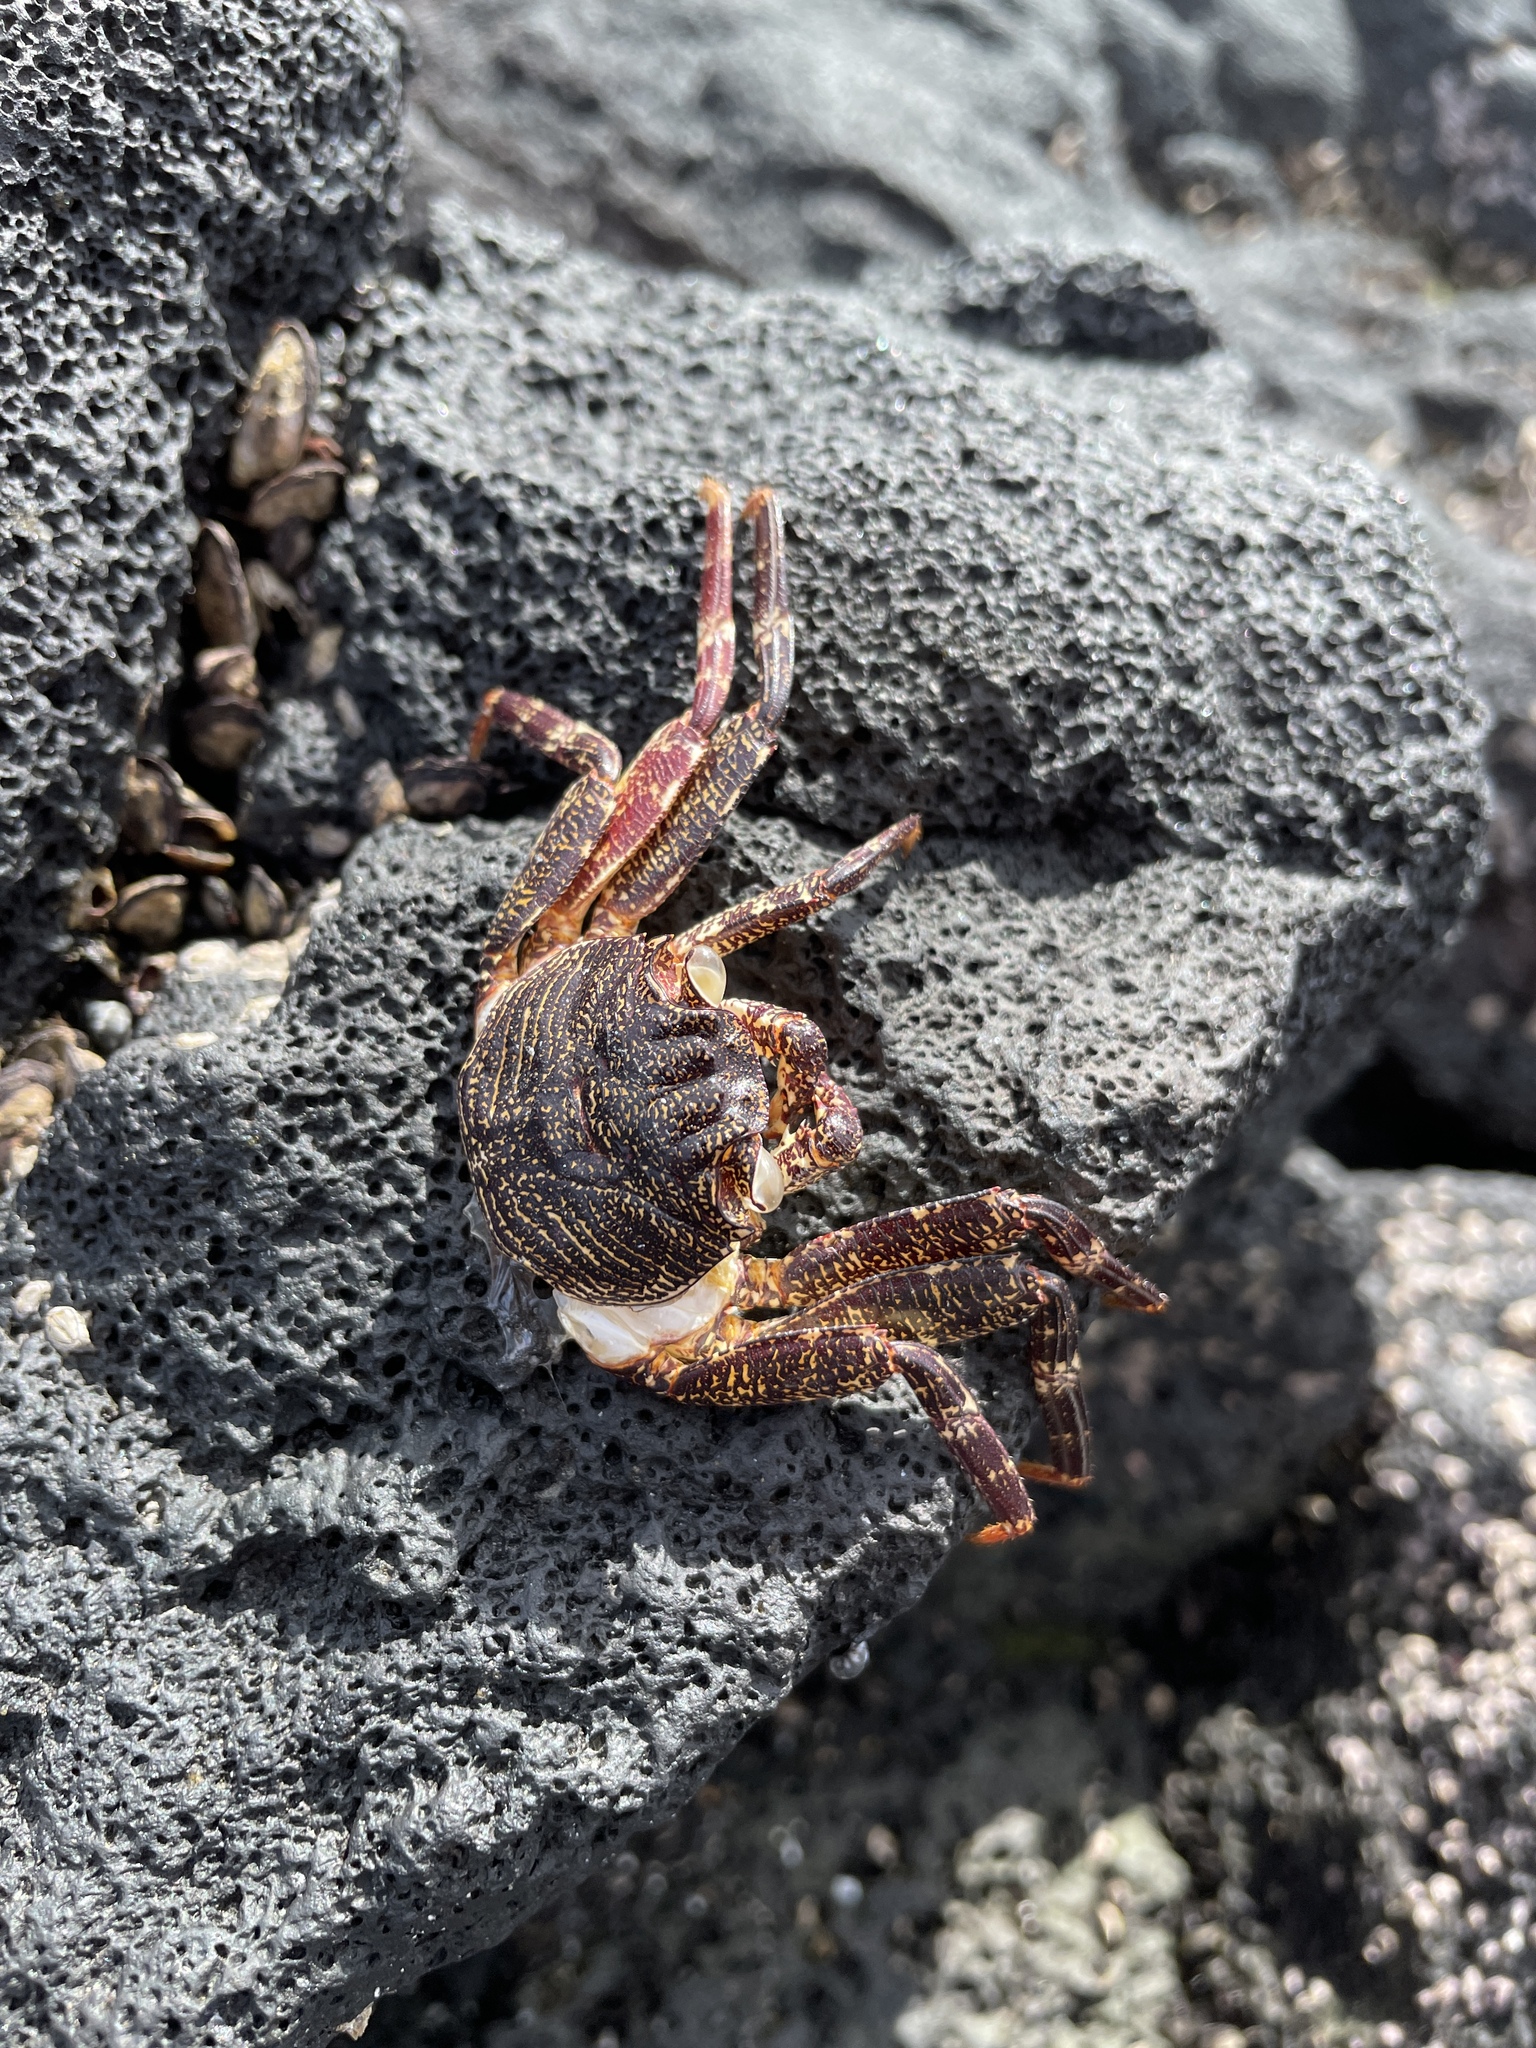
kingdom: Animalia
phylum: Arthropoda
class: Malacostraca
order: Decapoda
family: Grapsidae
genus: Grapsus
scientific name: Grapsus tenuicrustatus
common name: Natal lightfoot crab
